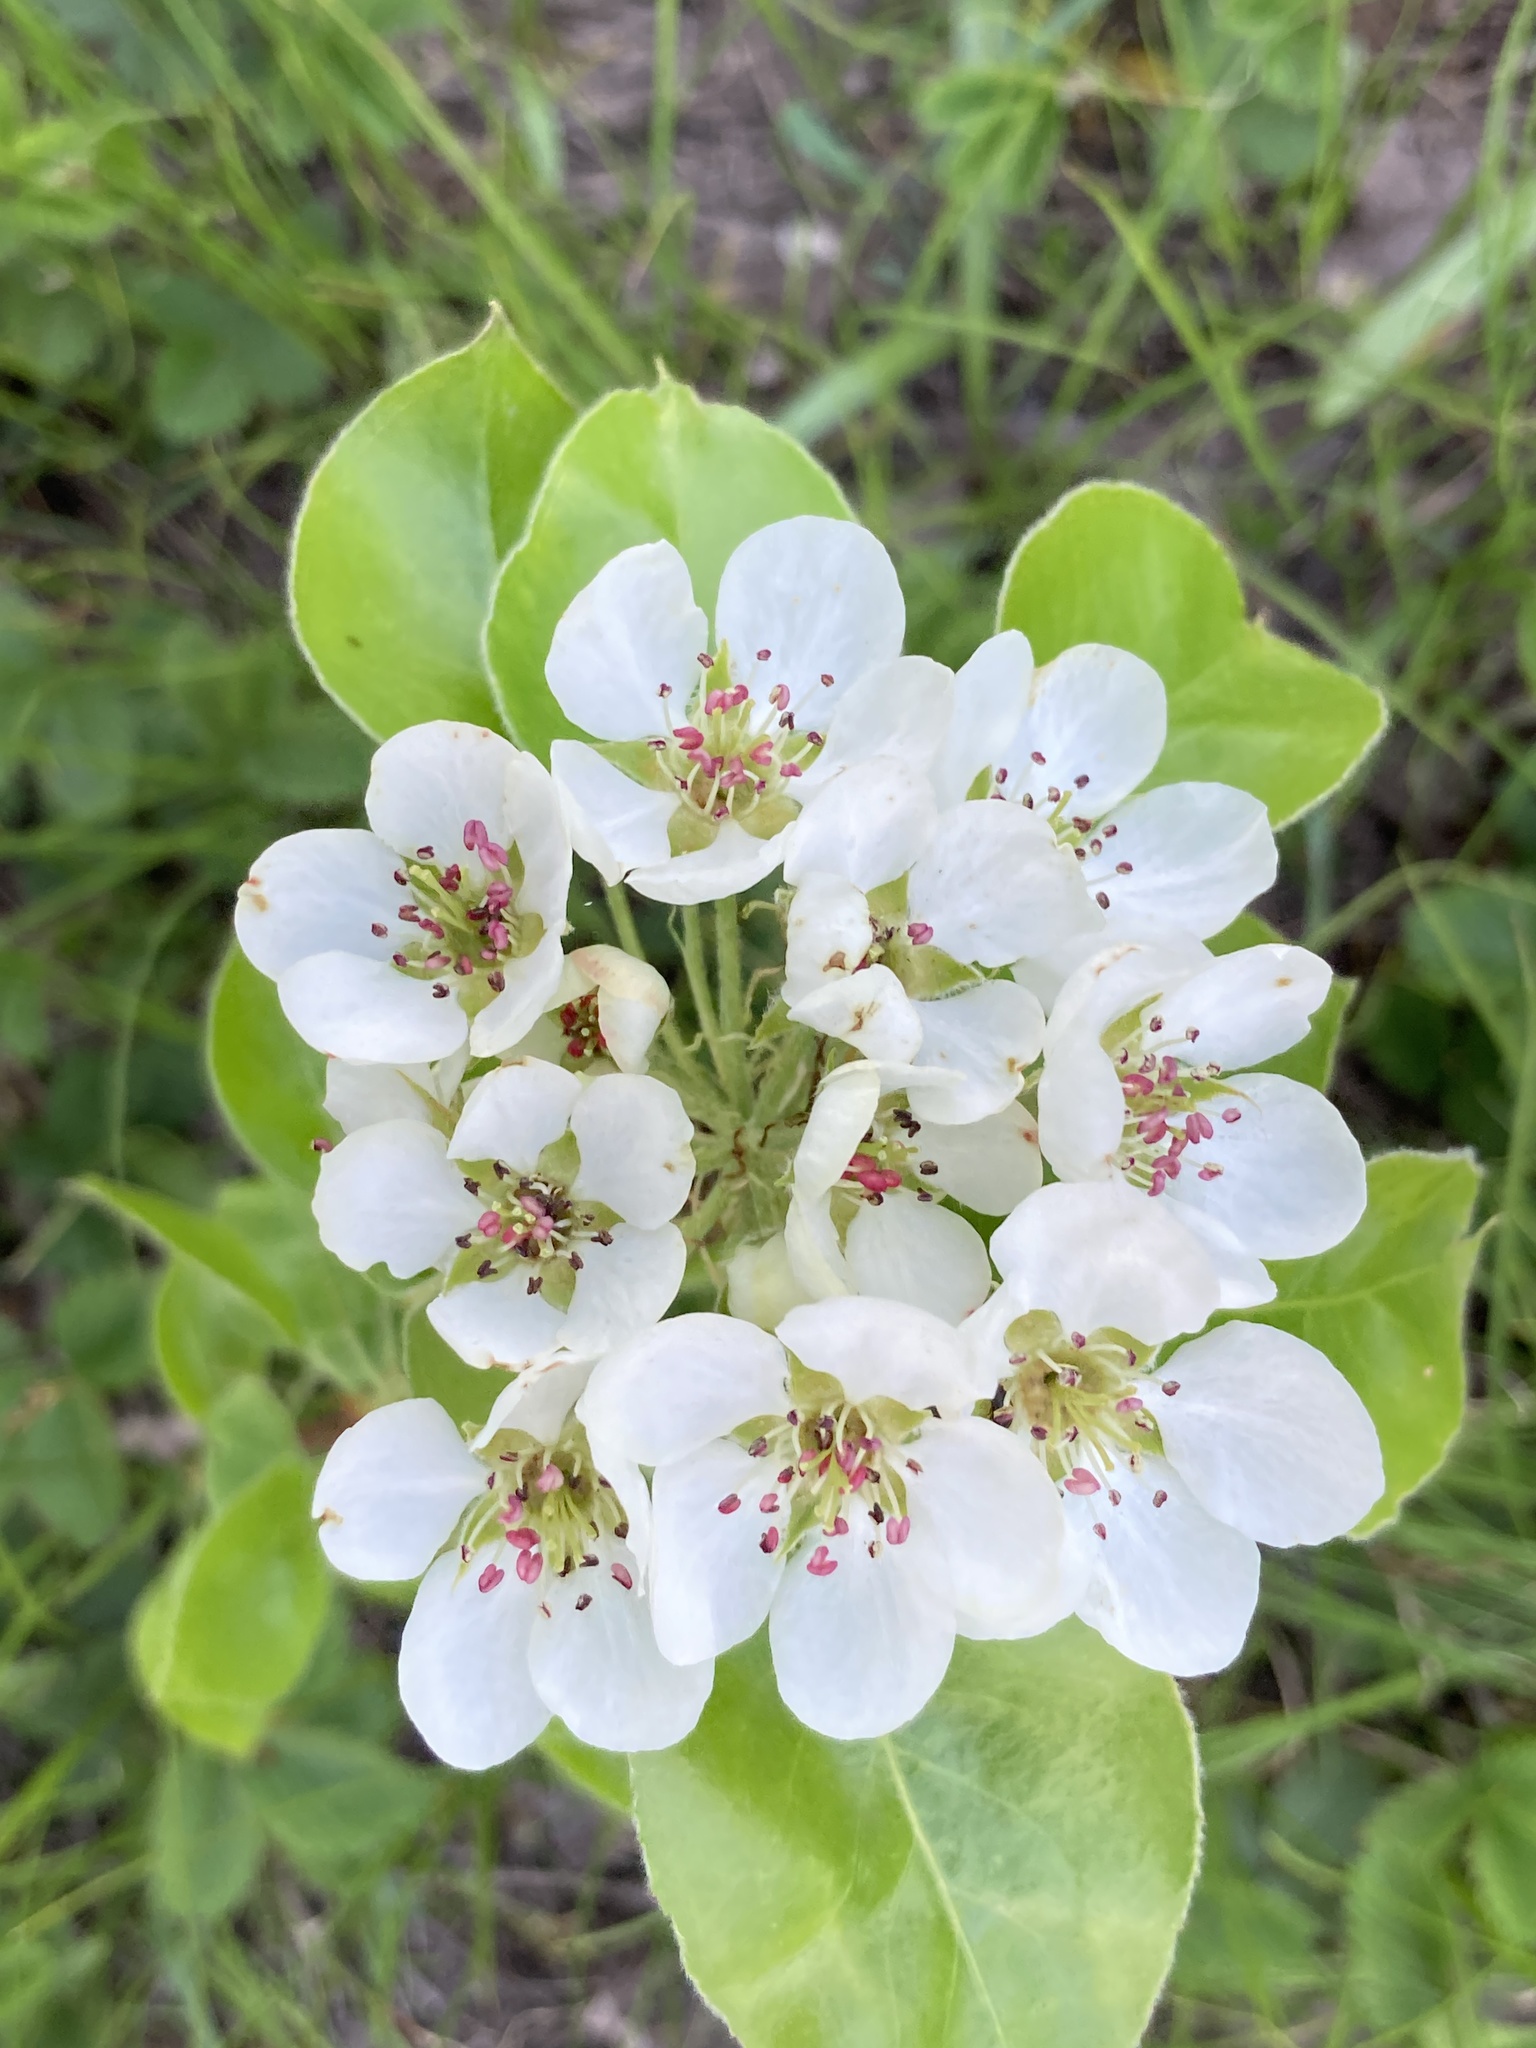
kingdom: Plantae
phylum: Tracheophyta
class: Magnoliopsida
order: Rosales
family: Rosaceae
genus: Pyrus
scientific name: Pyrus communis
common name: Pear
